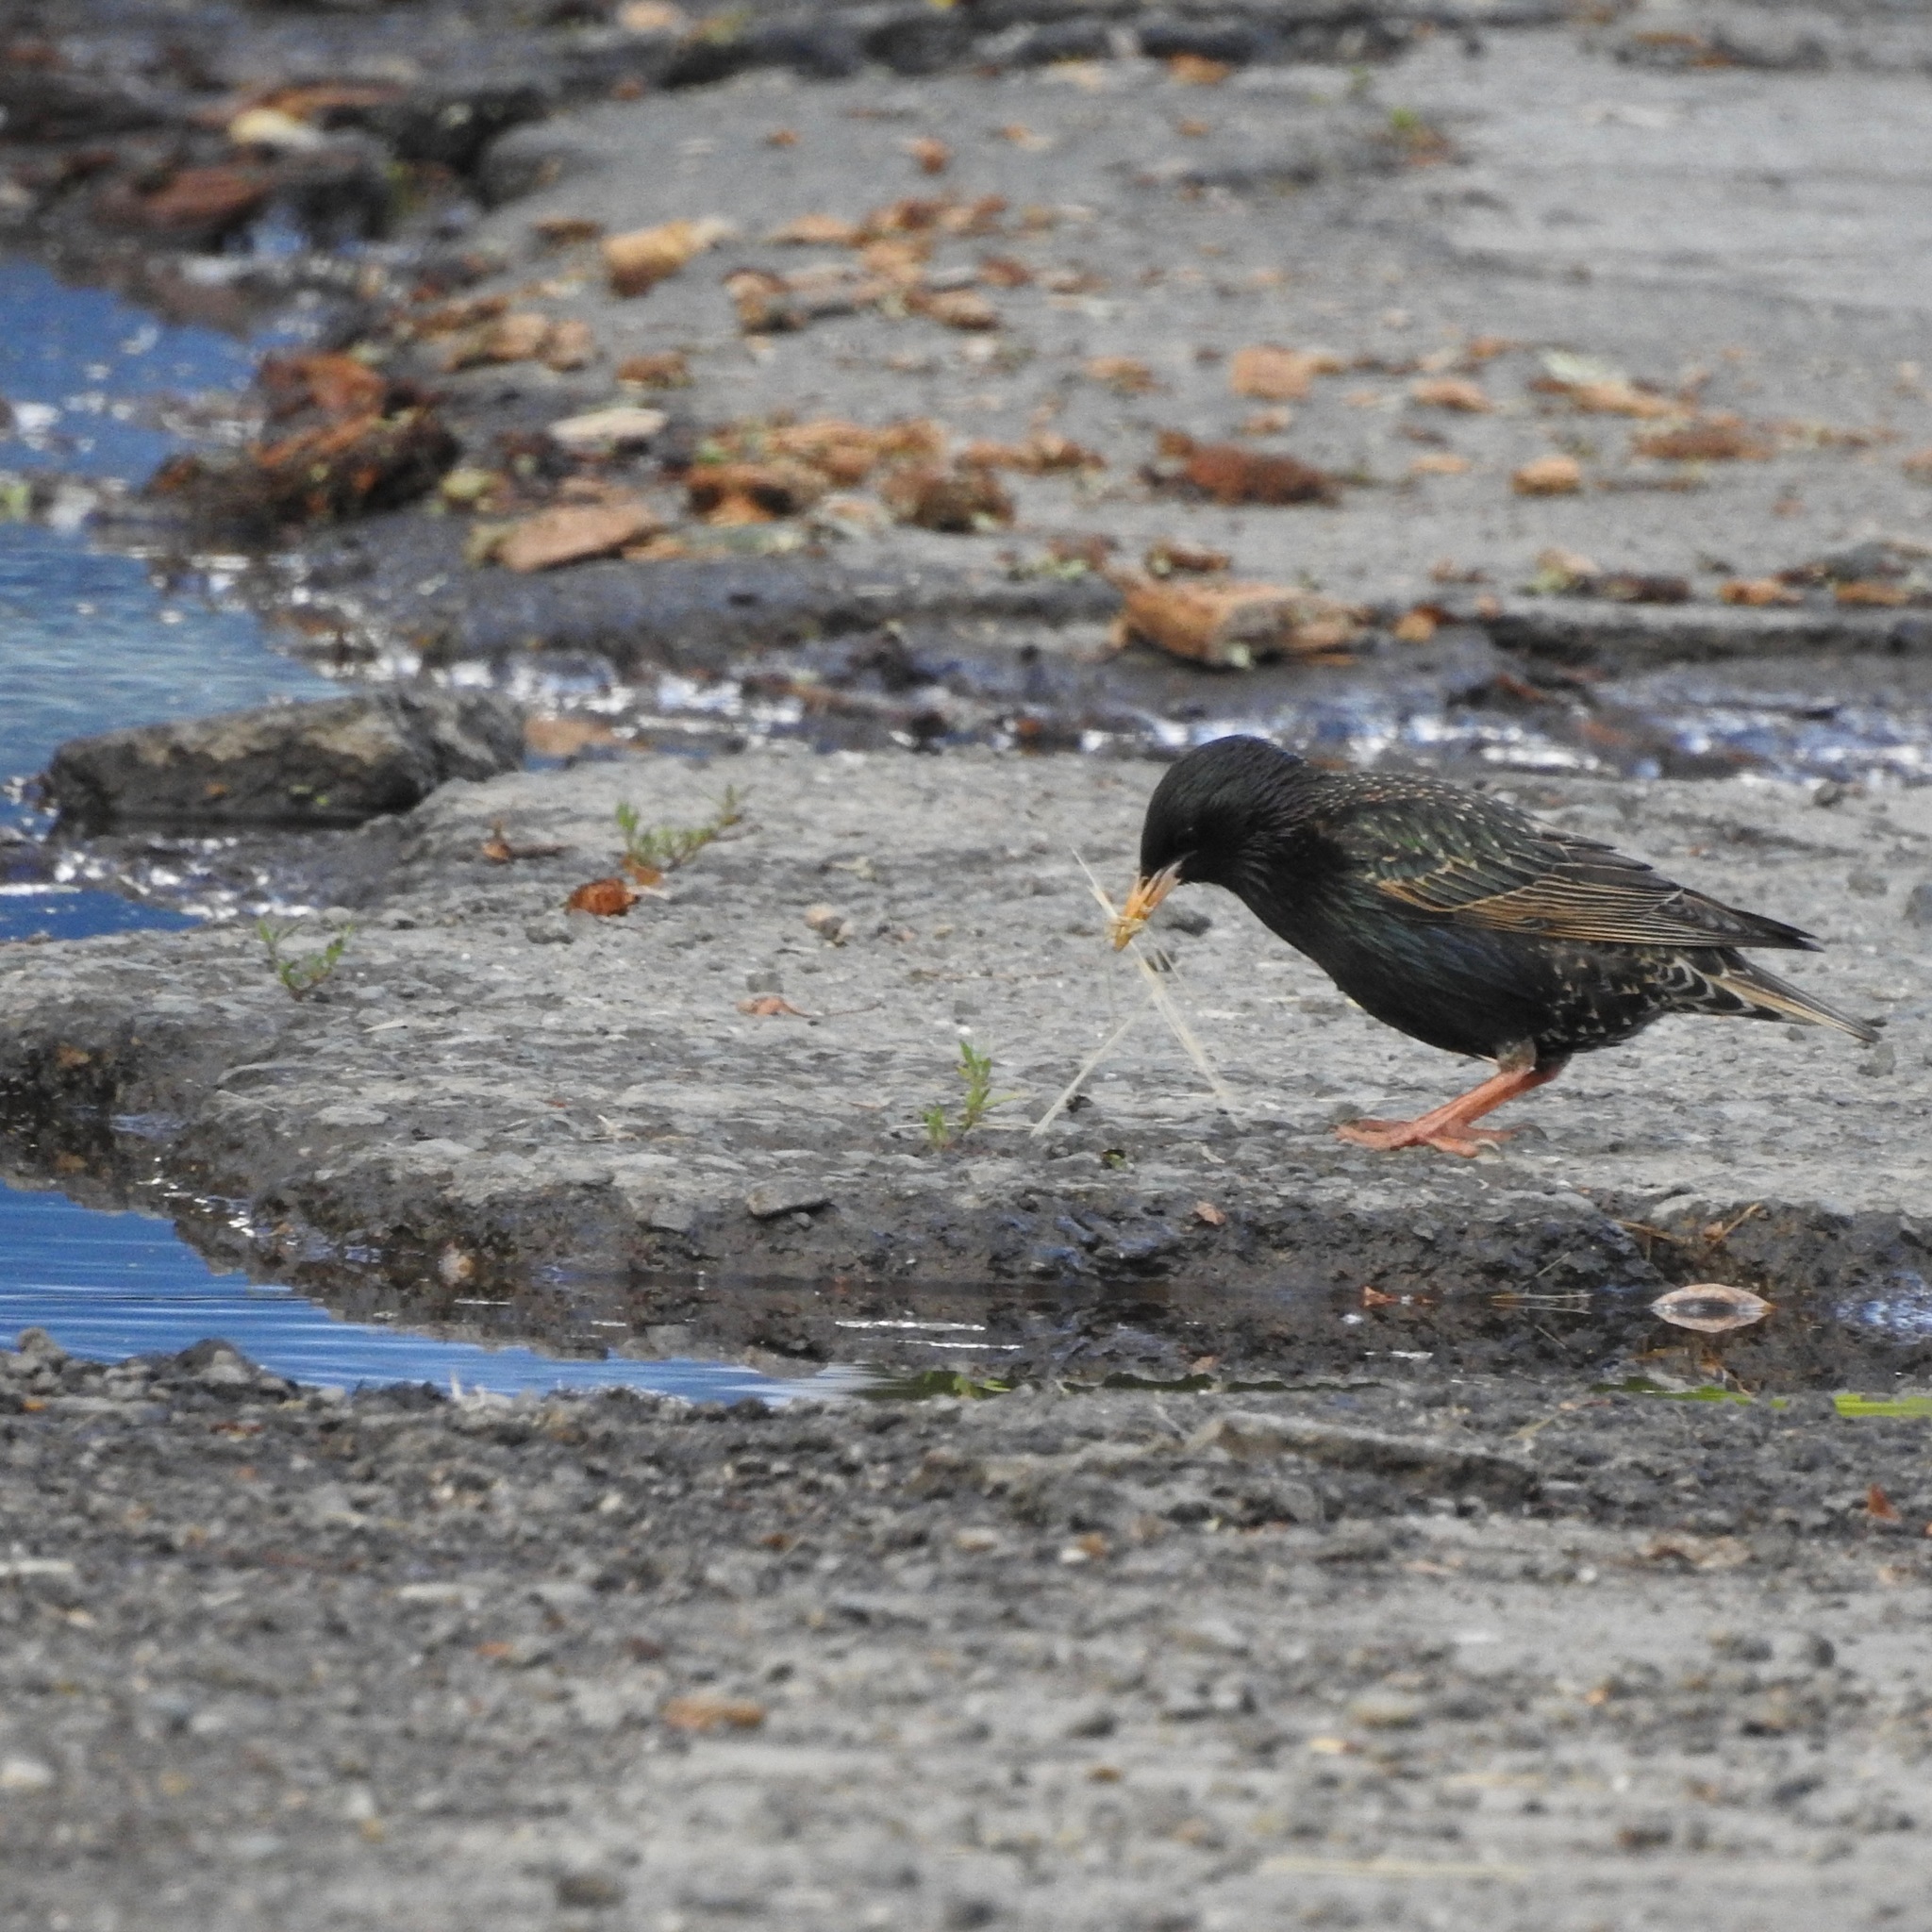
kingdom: Animalia
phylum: Chordata
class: Aves
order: Passeriformes
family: Sturnidae
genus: Sturnus
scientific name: Sturnus vulgaris
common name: Common starling
